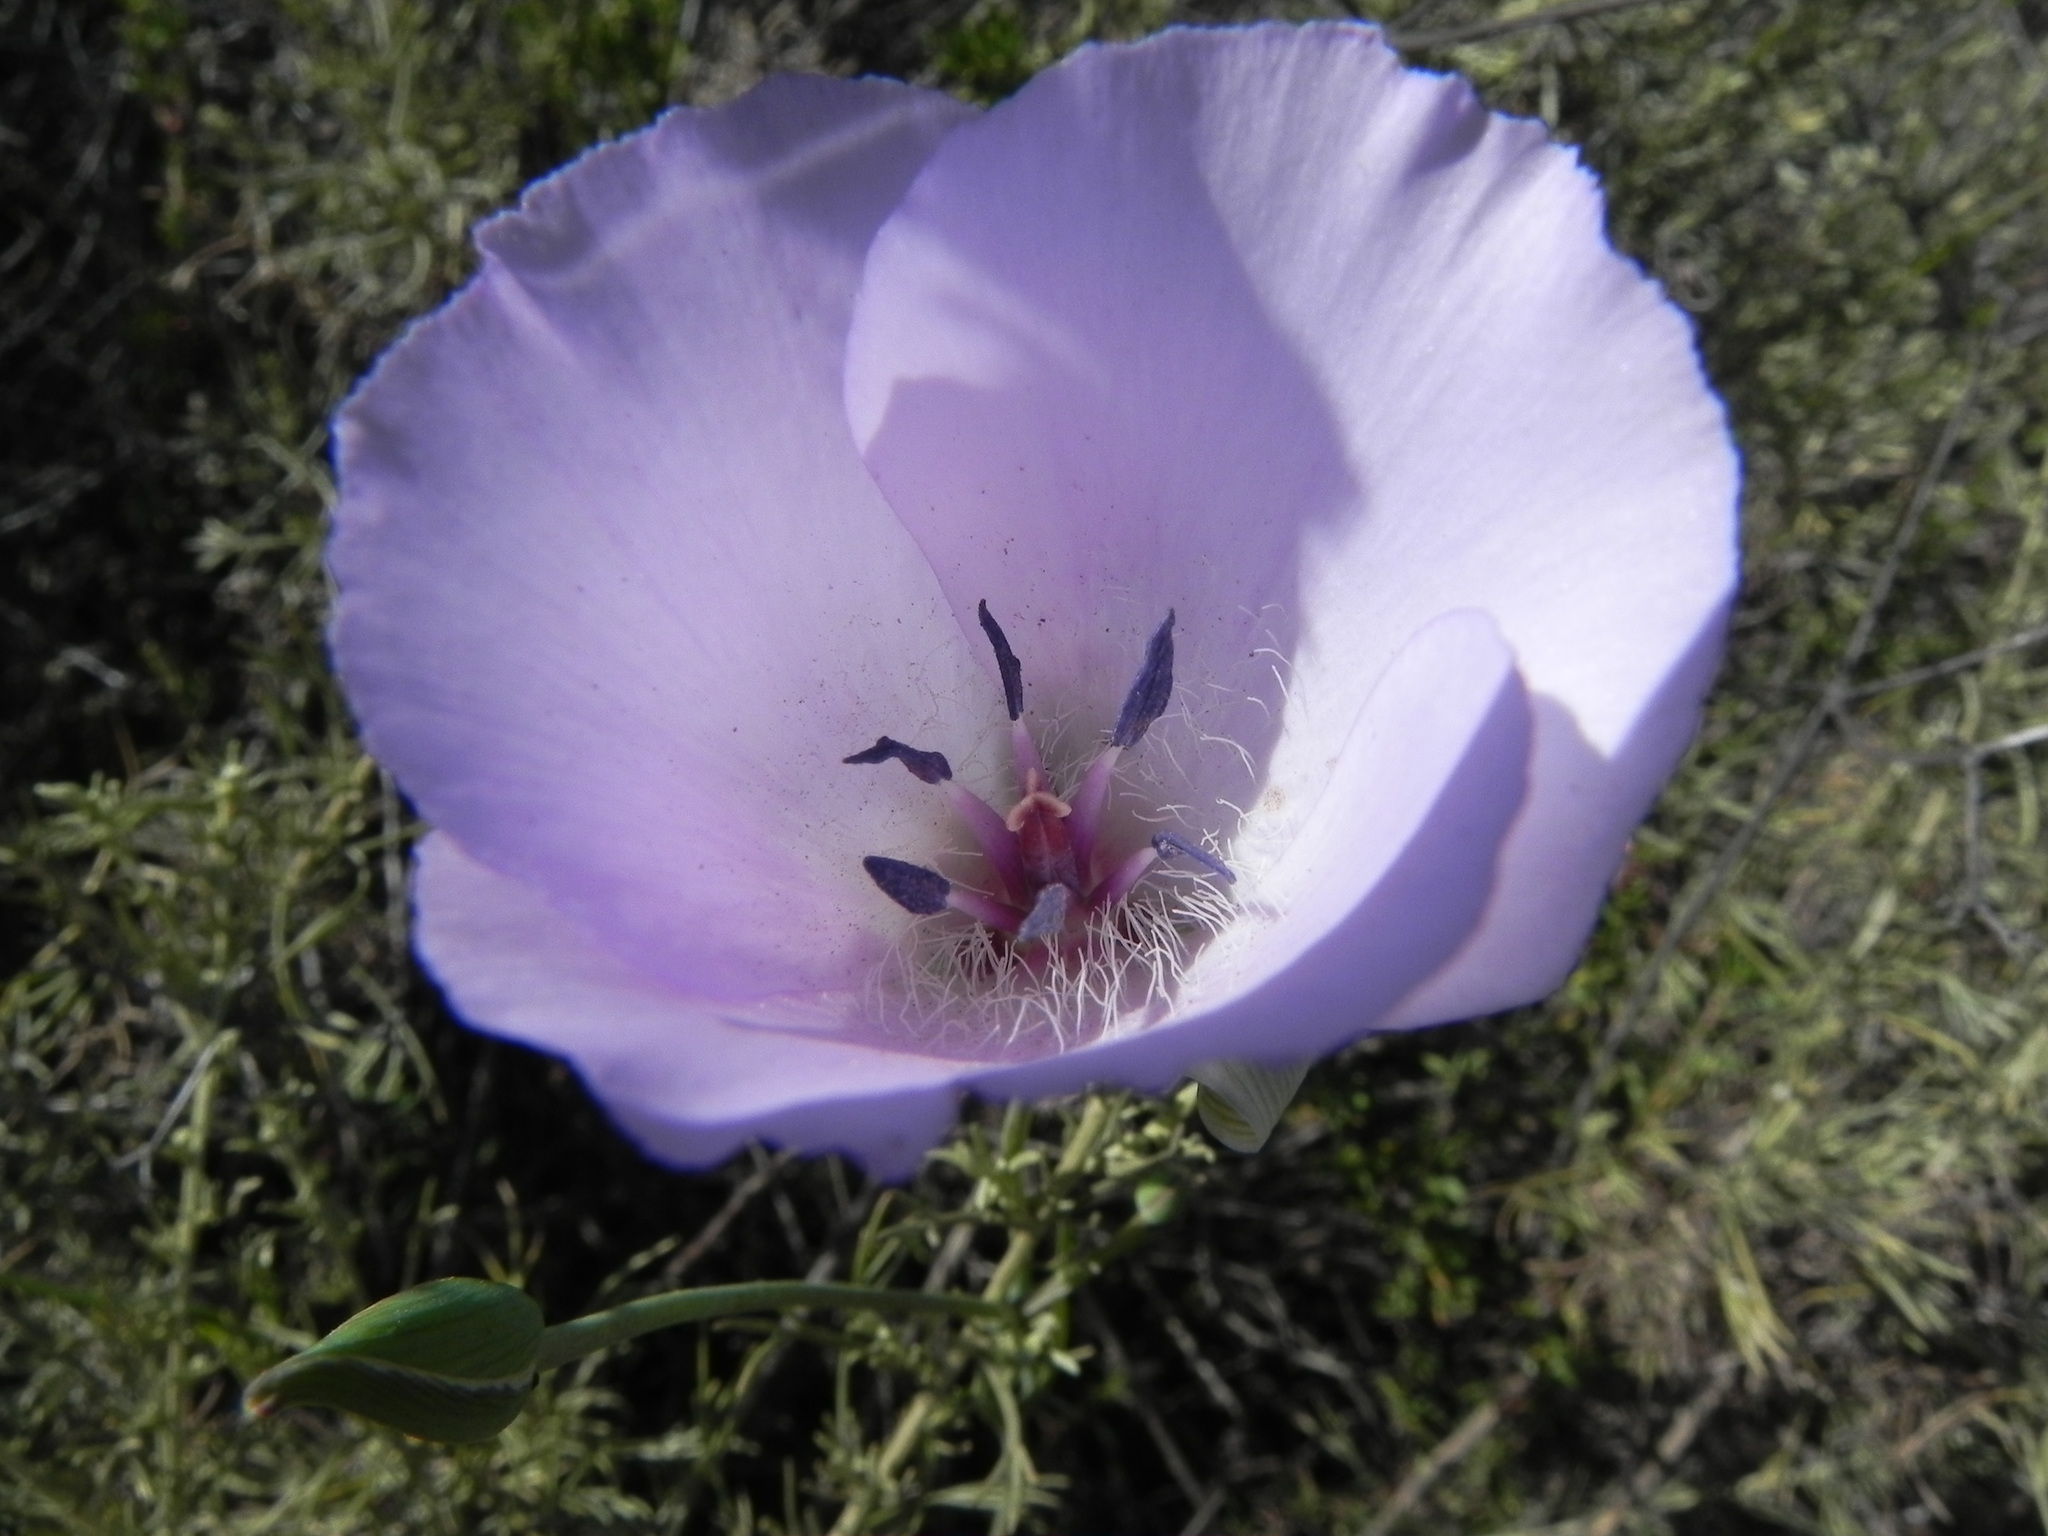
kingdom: Plantae
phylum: Tracheophyta
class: Liliopsida
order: Liliales
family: Liliaceae
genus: Calochortus
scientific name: Calochortus splendens
